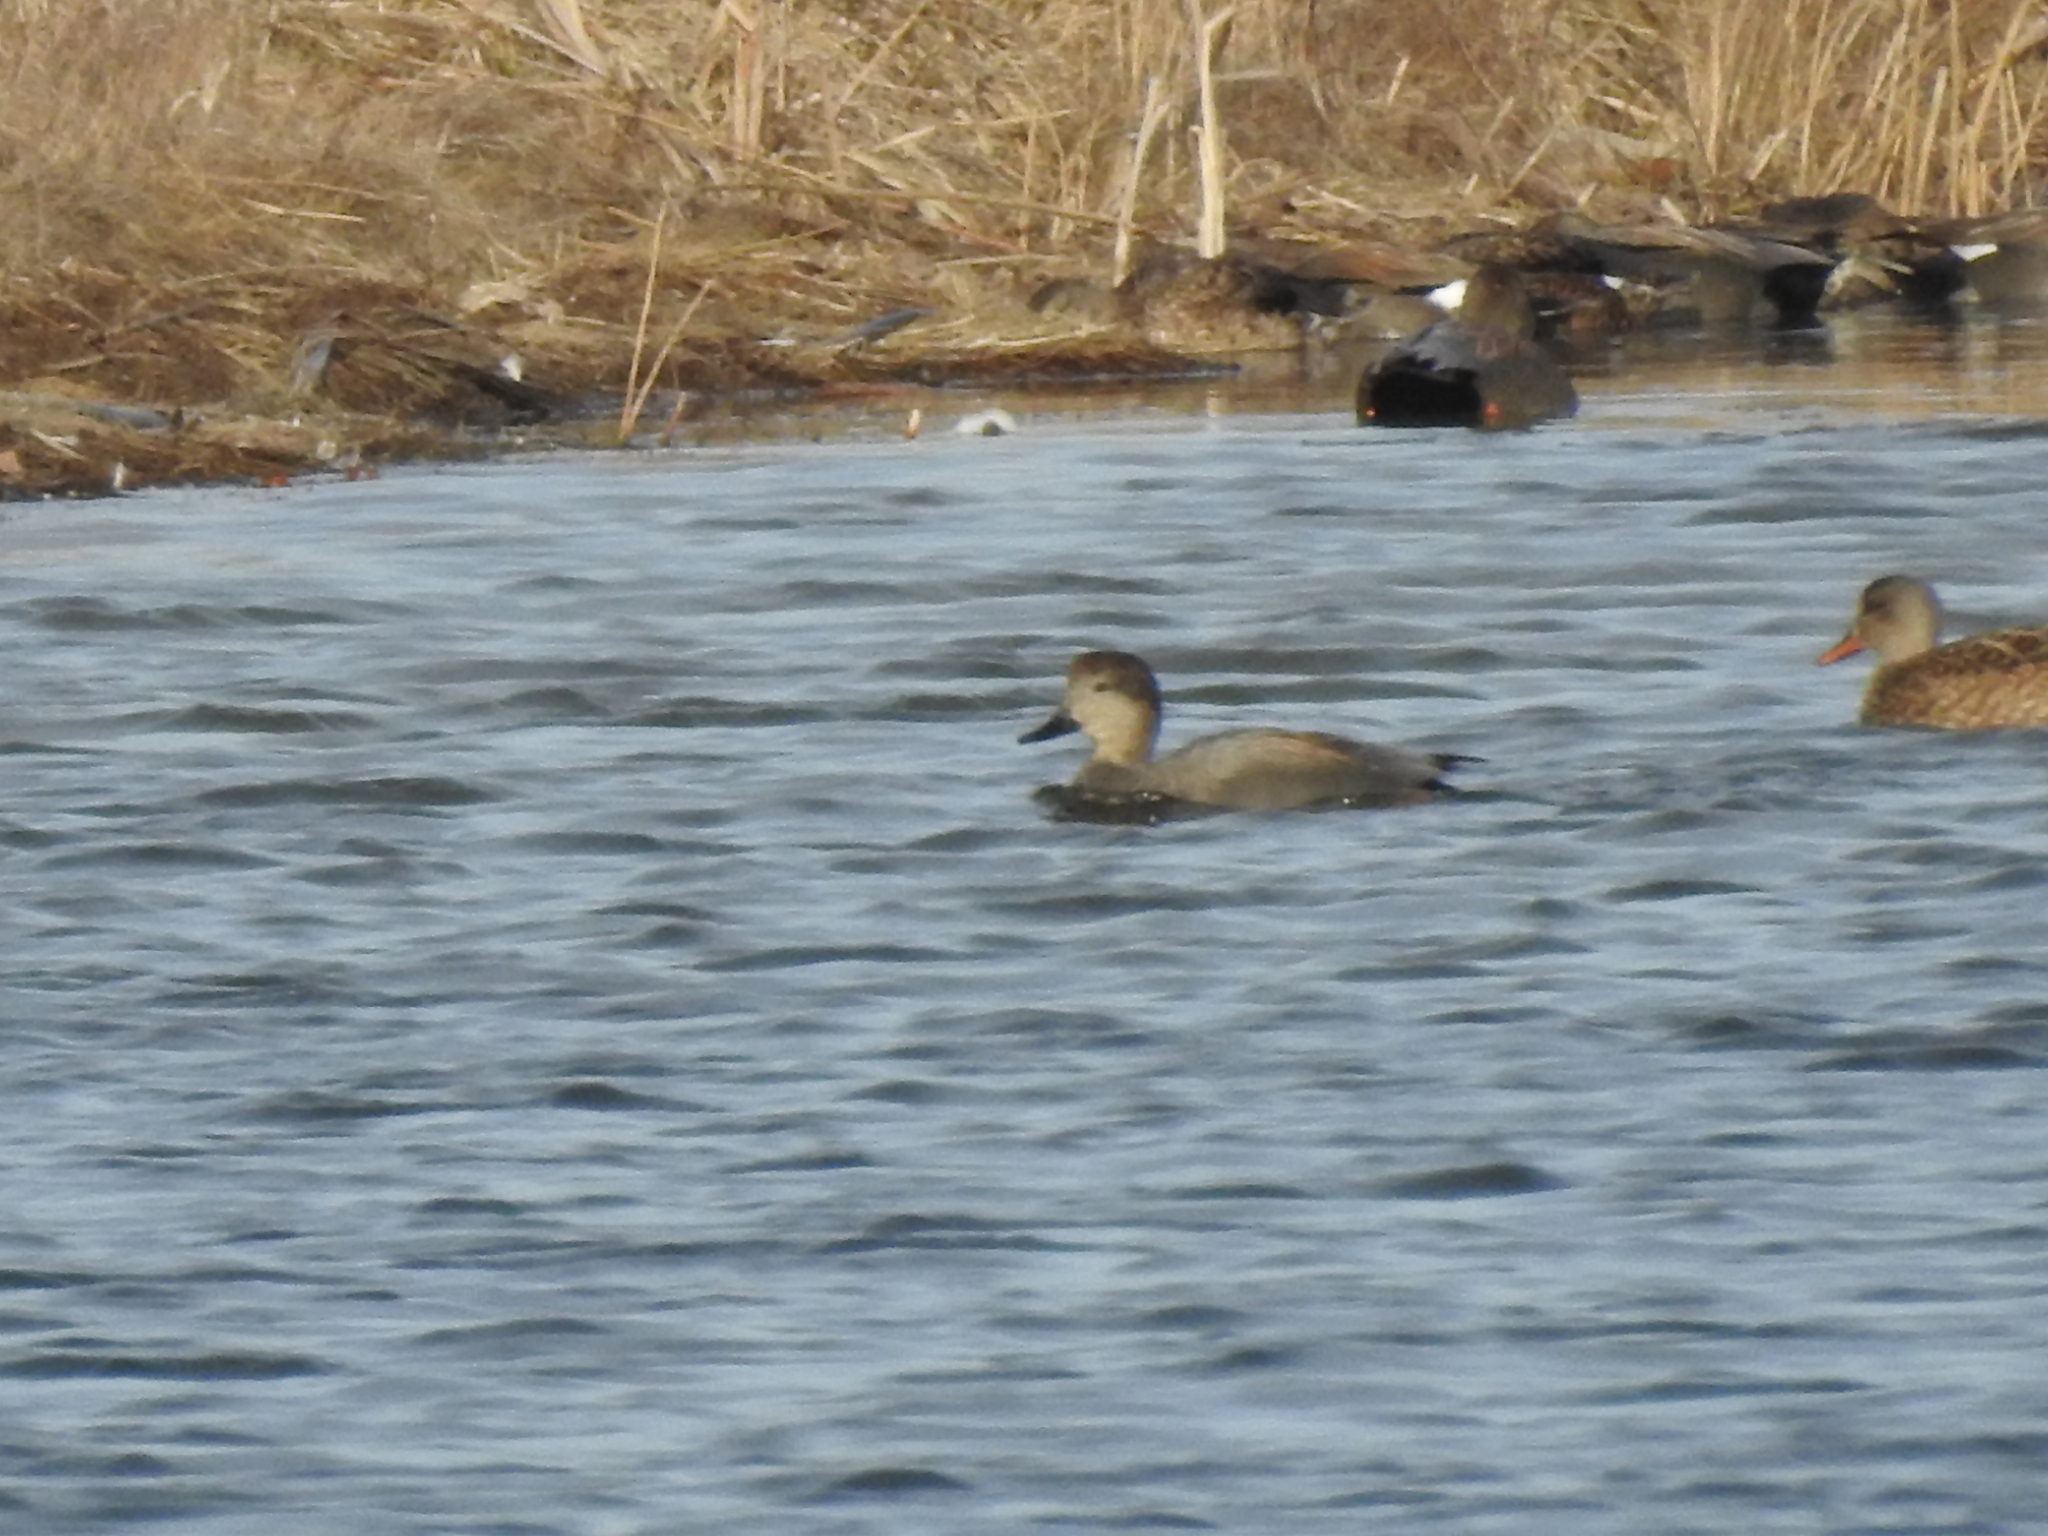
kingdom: Animalia
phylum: Chordata
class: Aves
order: Anseriformes
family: Anatidae
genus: Mareca
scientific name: Mareca strepera
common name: Gadwall
